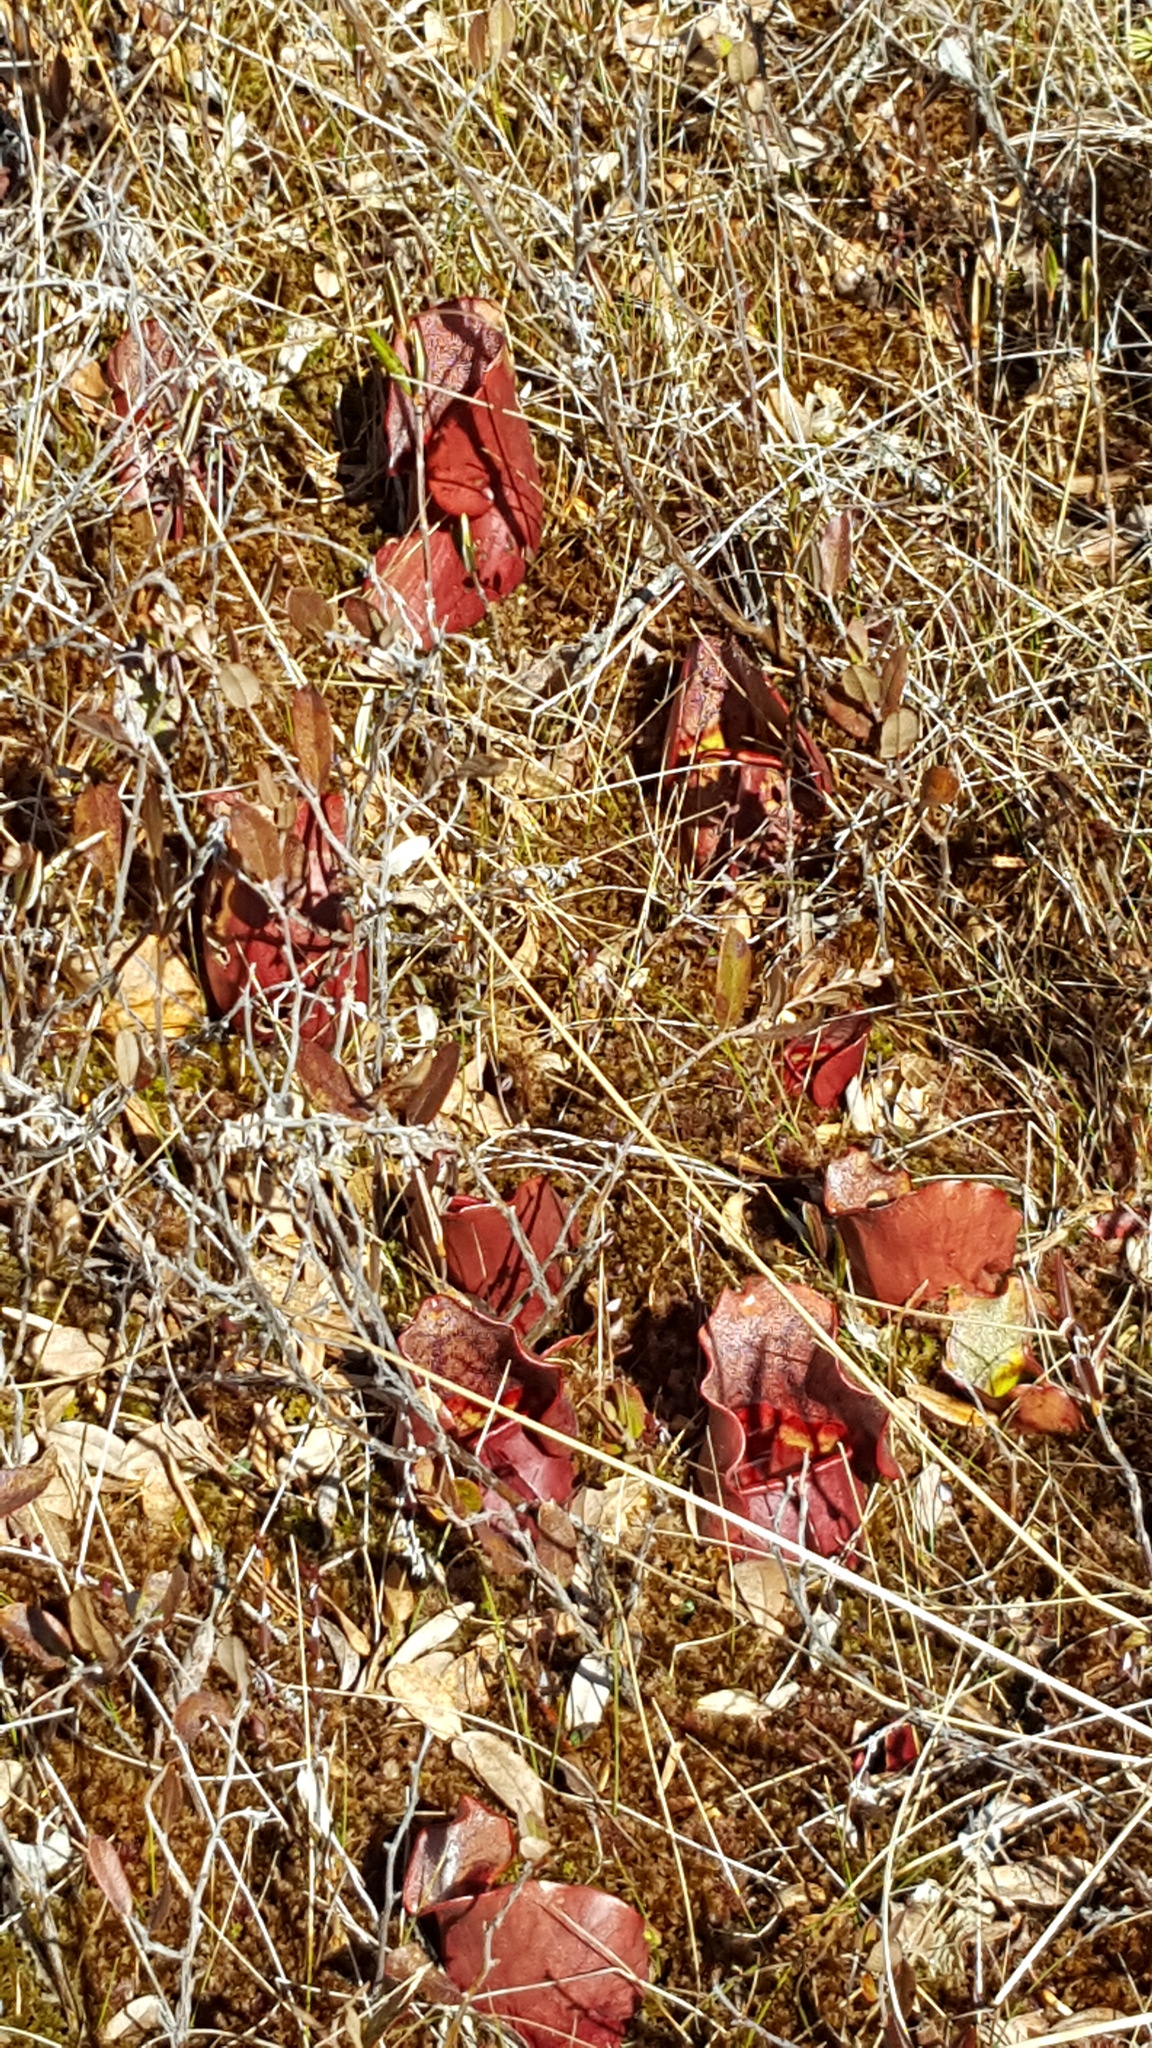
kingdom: Plantae
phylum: Tracheophyta
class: Magnoliopsida
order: Ericales
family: Sarraceniaceae
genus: Sarracenia
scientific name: Sarracenia purpurea
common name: Pitcherplant
